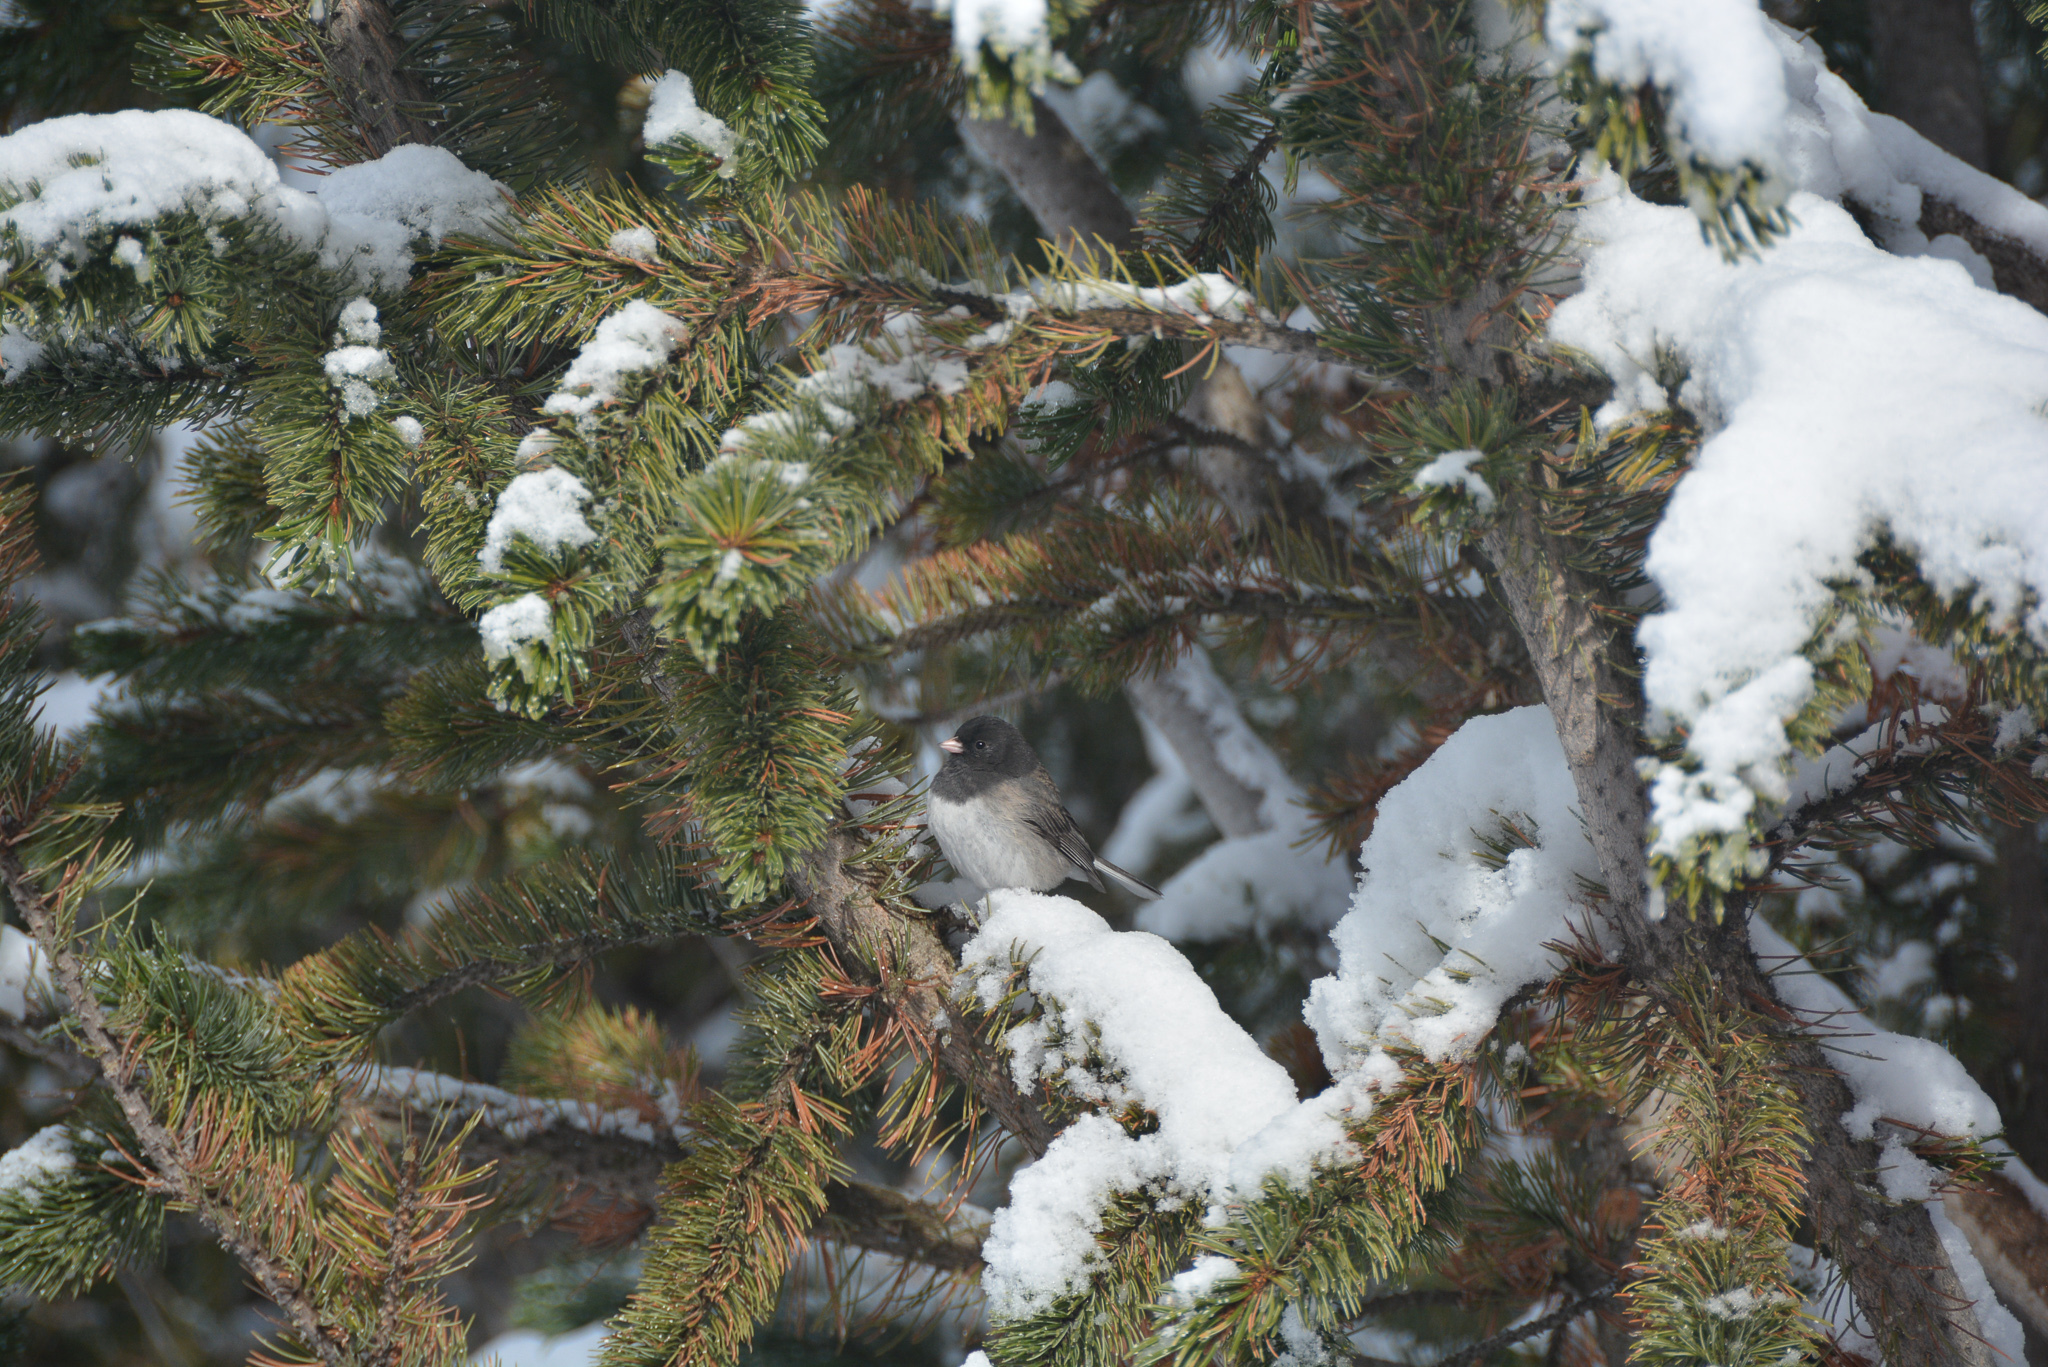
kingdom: Animalia
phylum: Chordata
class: Aves
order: Passeriformes
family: Passerellidae
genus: Junco
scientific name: Junco hyemalis
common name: Dark-eyed junco
